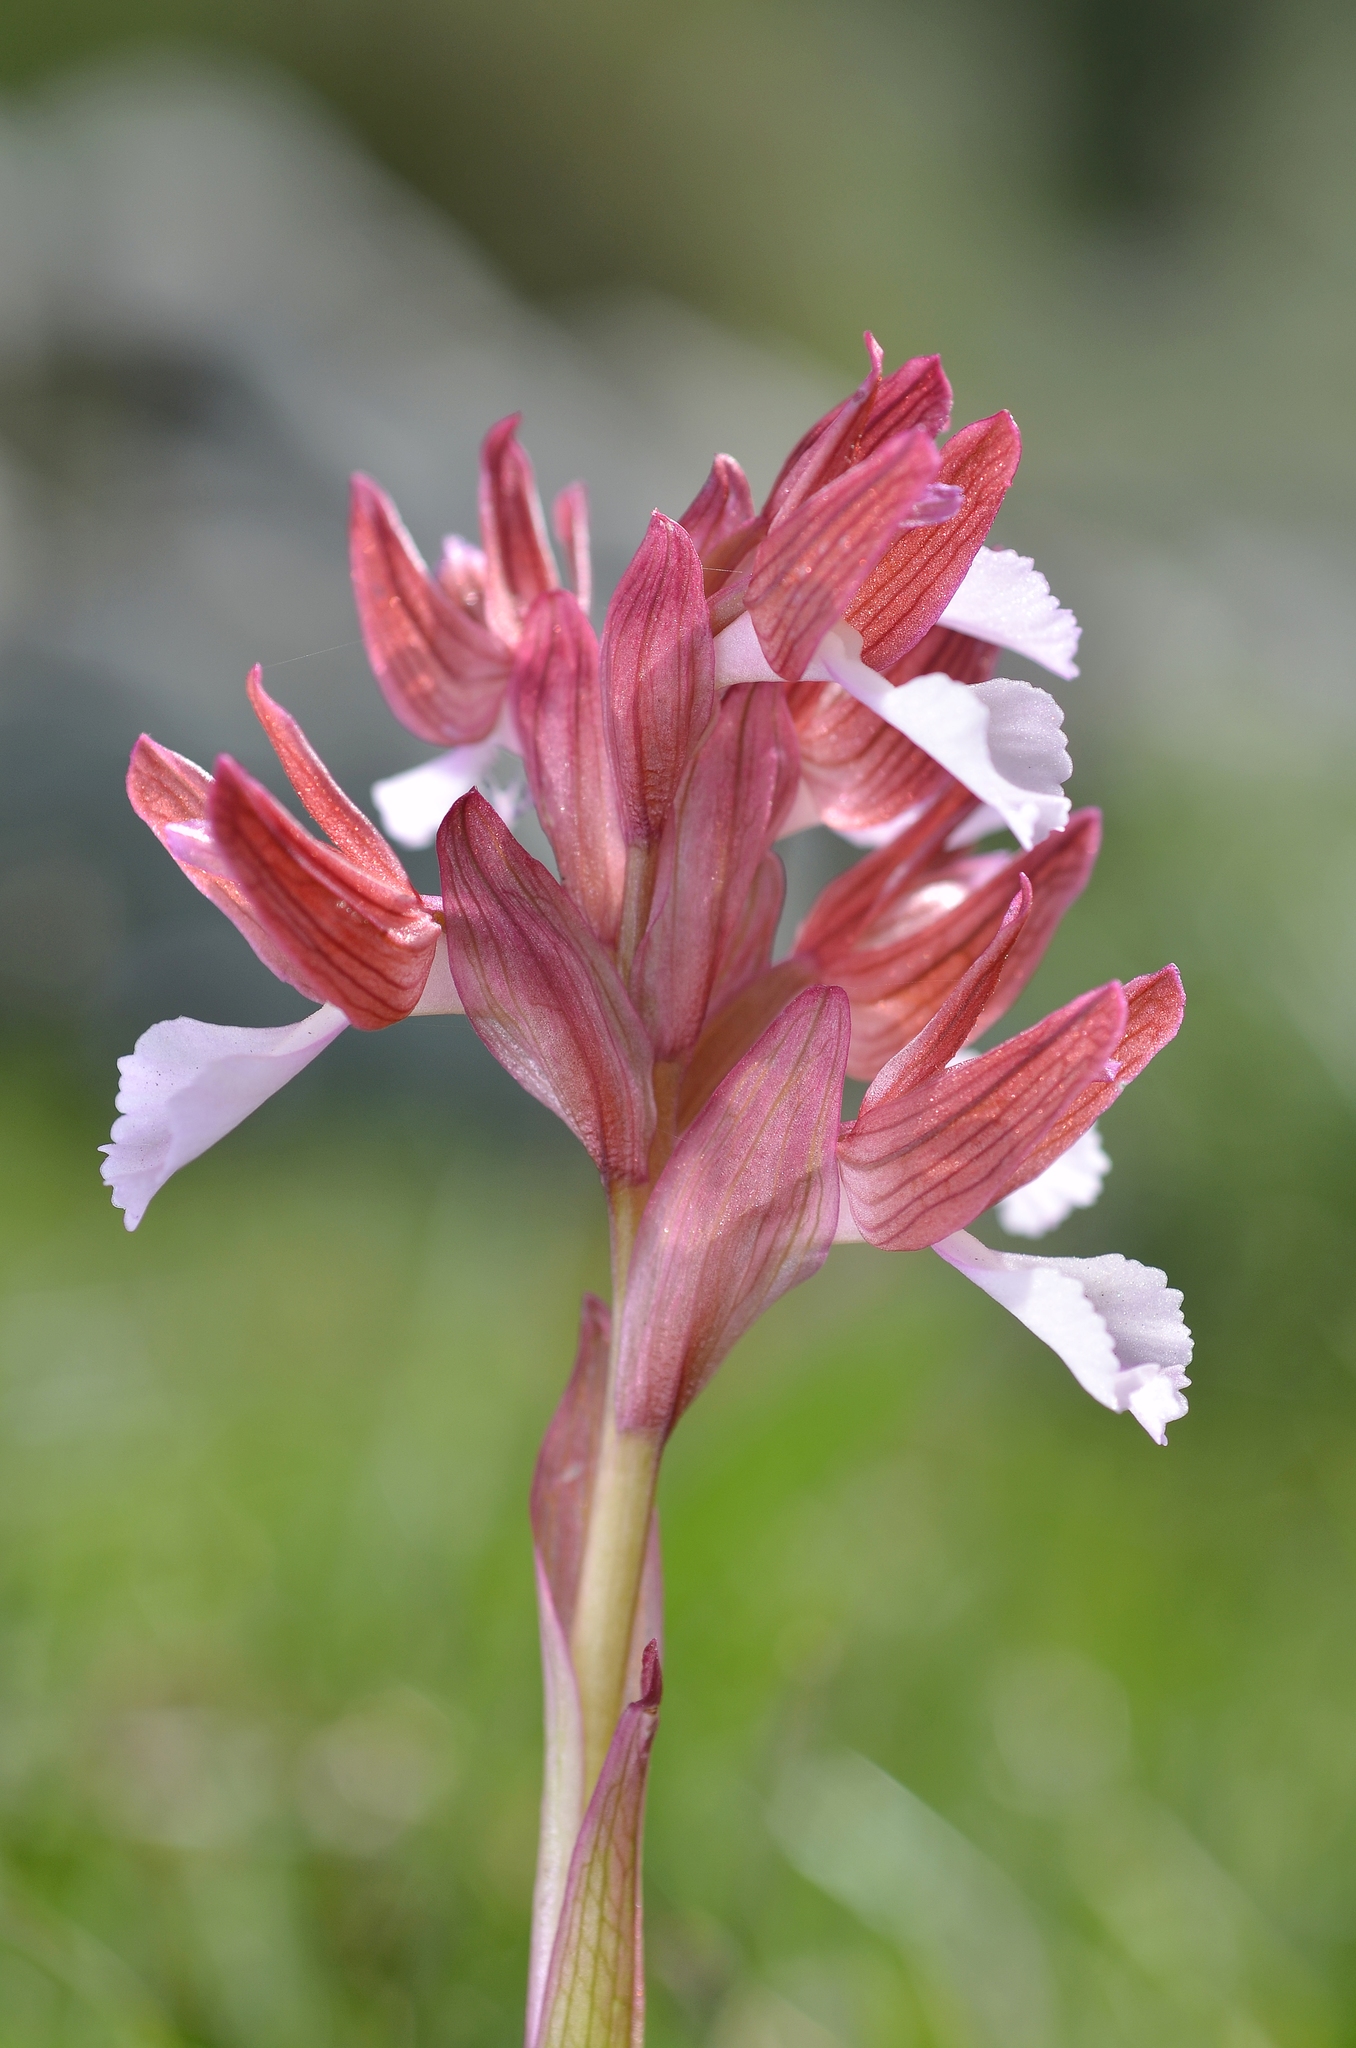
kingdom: Plantae
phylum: Tracheophyta
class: Liliopsida
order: Asparagales
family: Orchidaceae
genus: Anacamptis
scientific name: Anacamptis papilionacea
